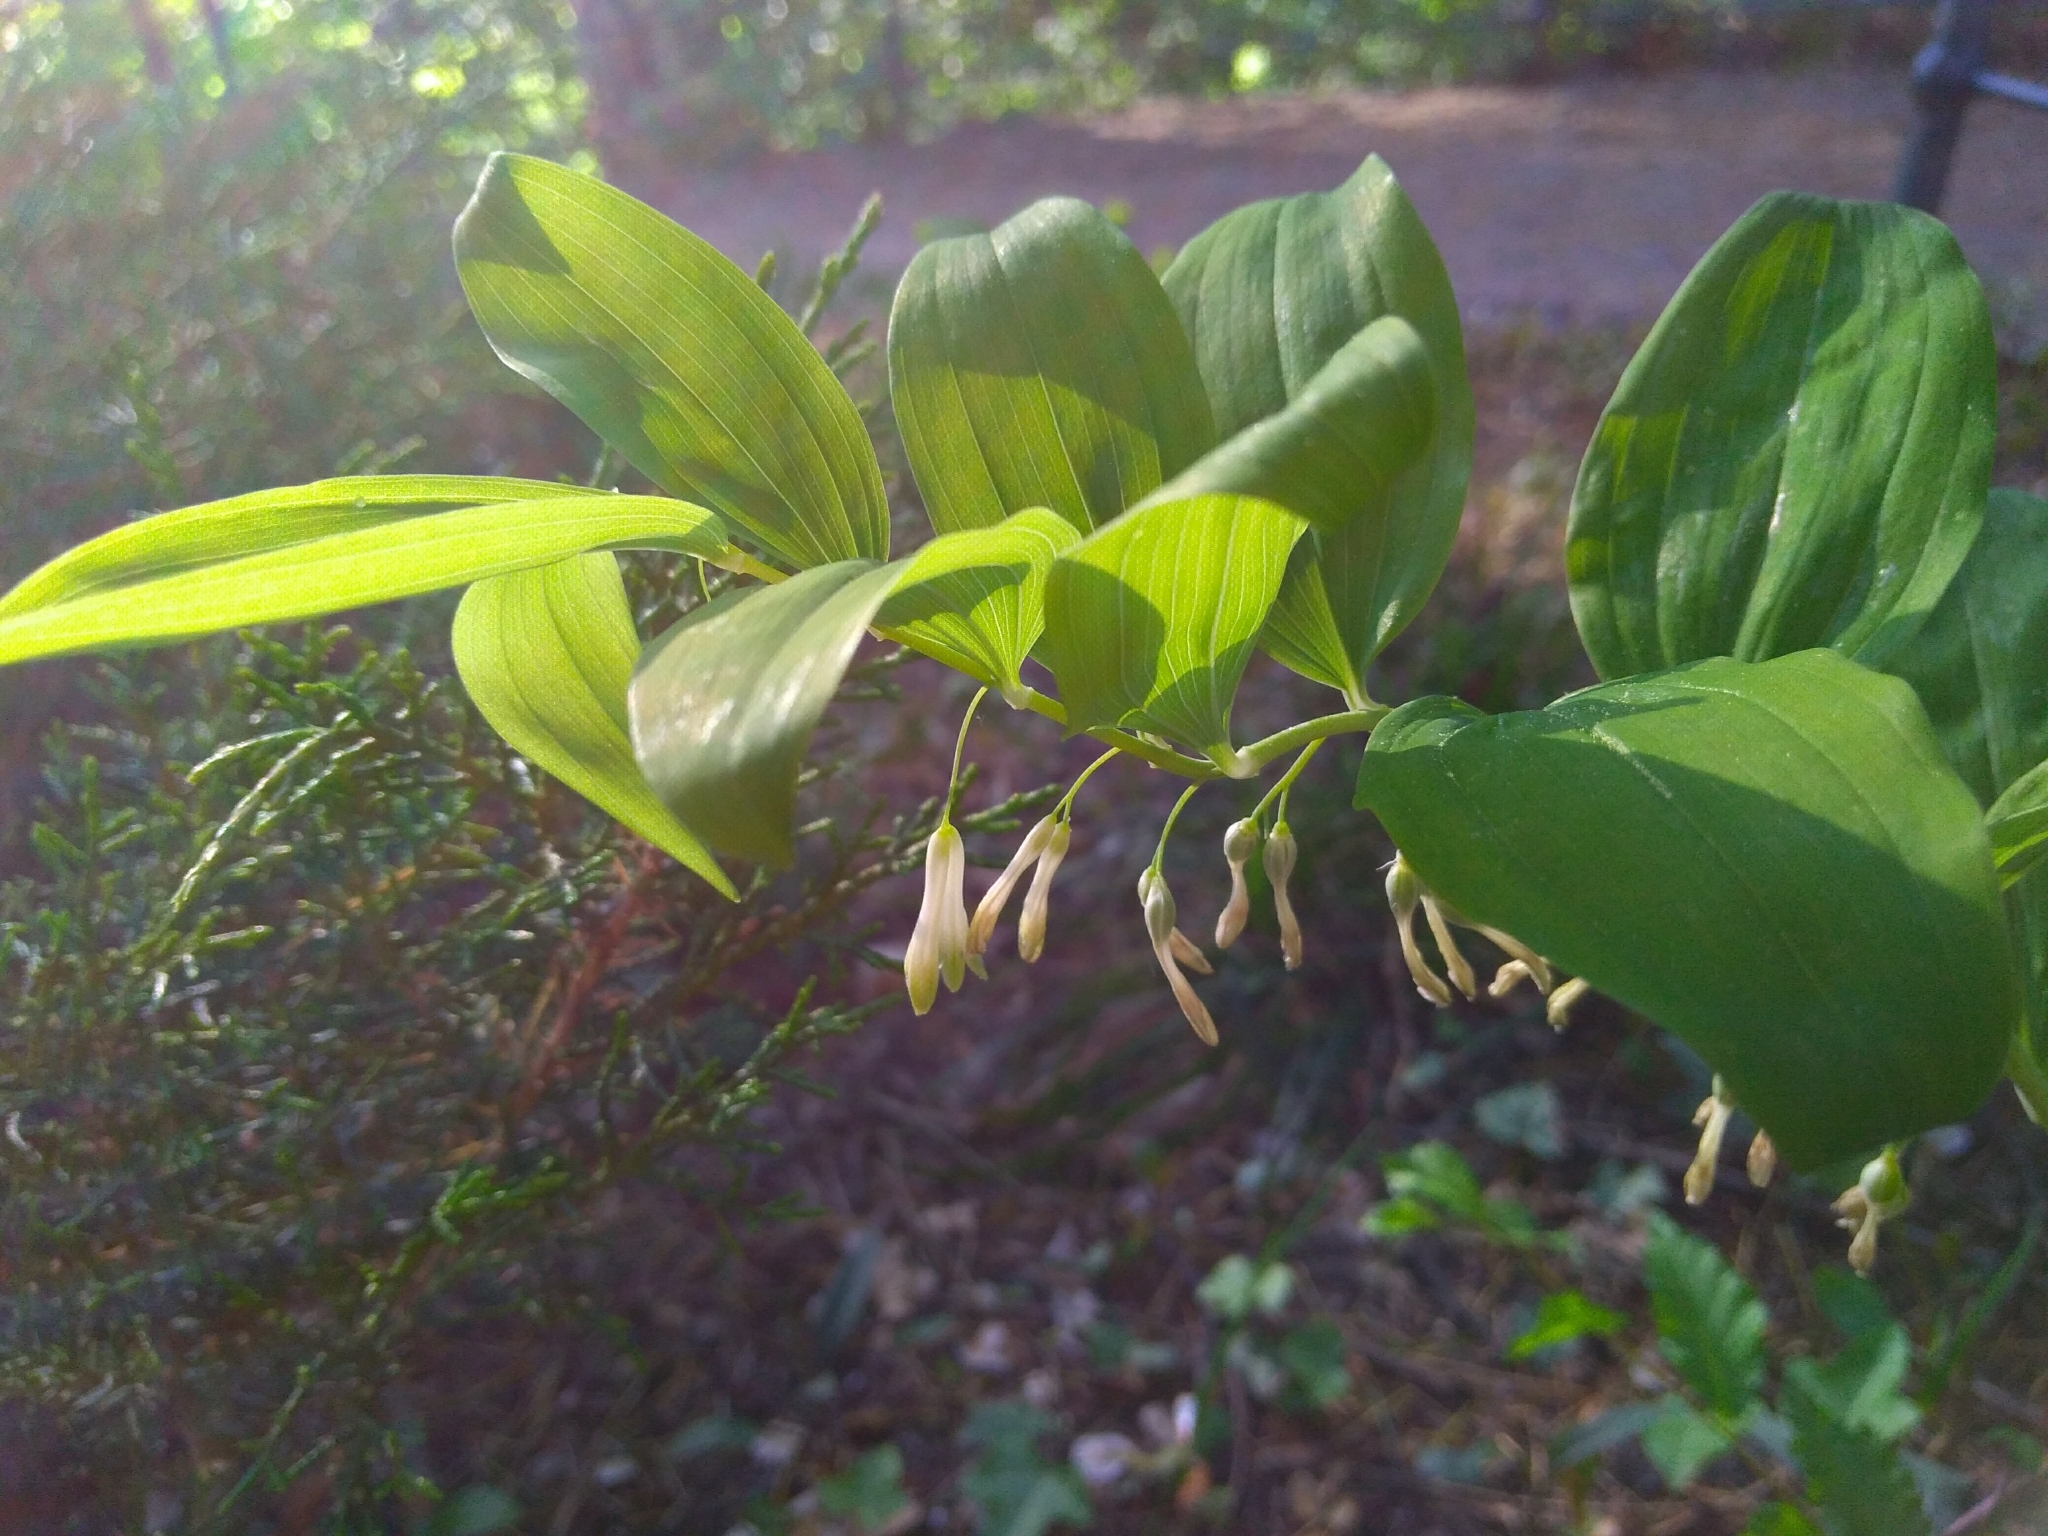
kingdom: Plantae
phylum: Tracheophyta
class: Liliopsida
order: Asparagales
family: Asparagaceae
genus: Polygonatum
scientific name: Polygonatum multiflorum
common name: Solomon's-seal
